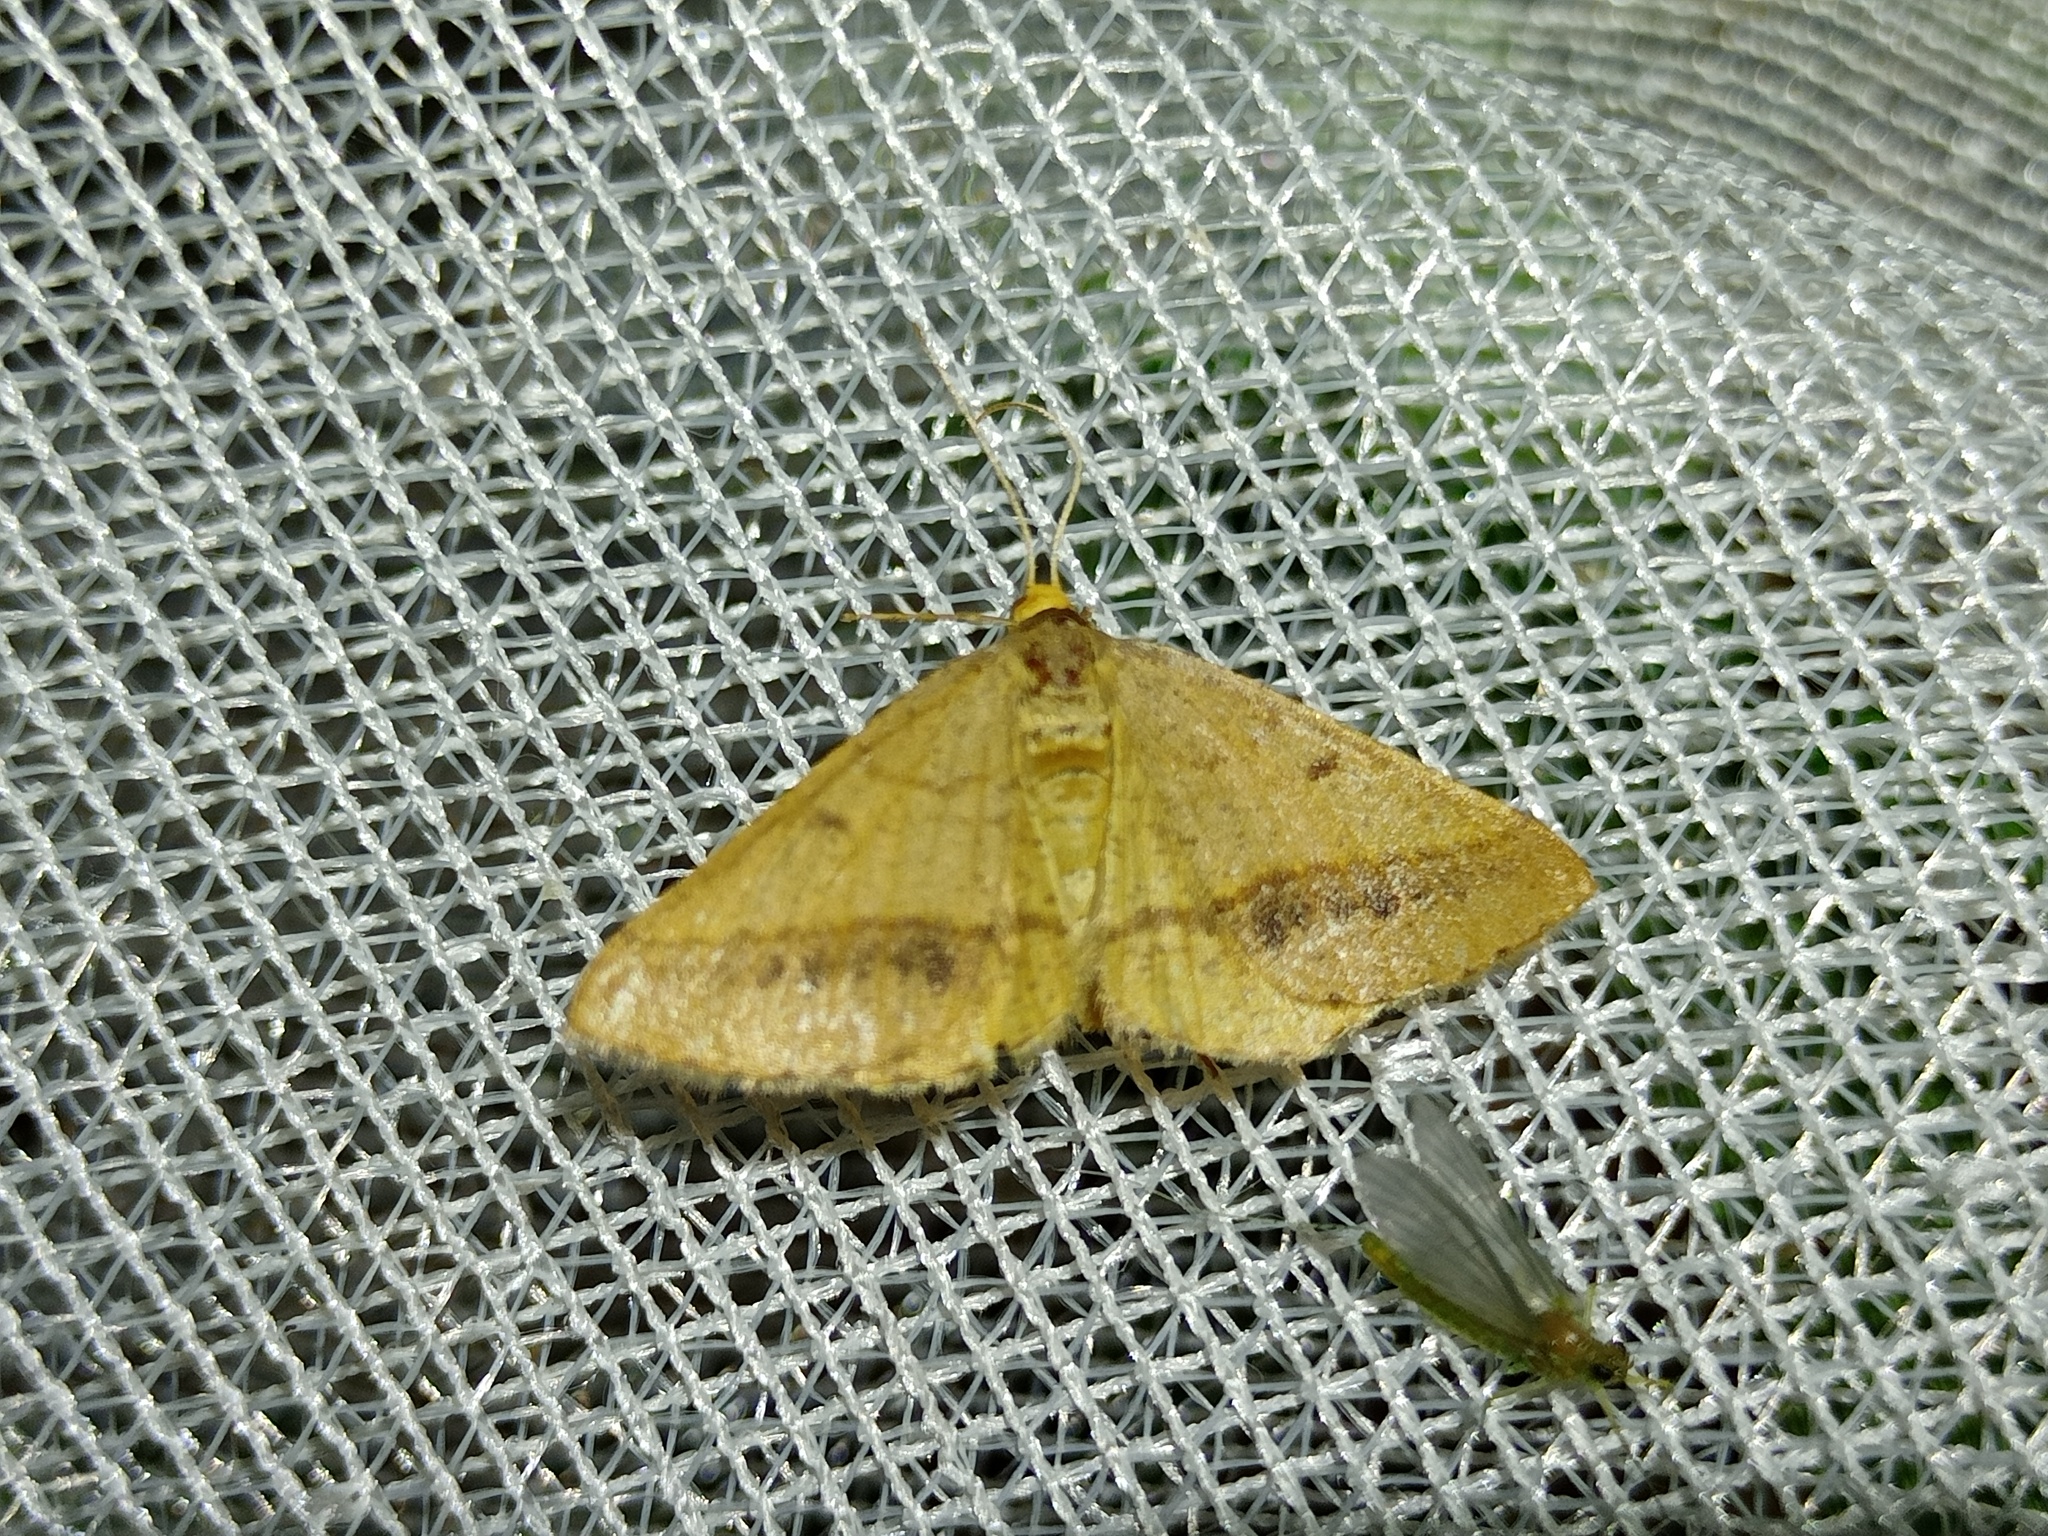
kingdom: Animalia
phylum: Arthropoda
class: Insecta
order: Lepidoptera
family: Geometridae
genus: Tephrina
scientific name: Tephrina arenacearia
